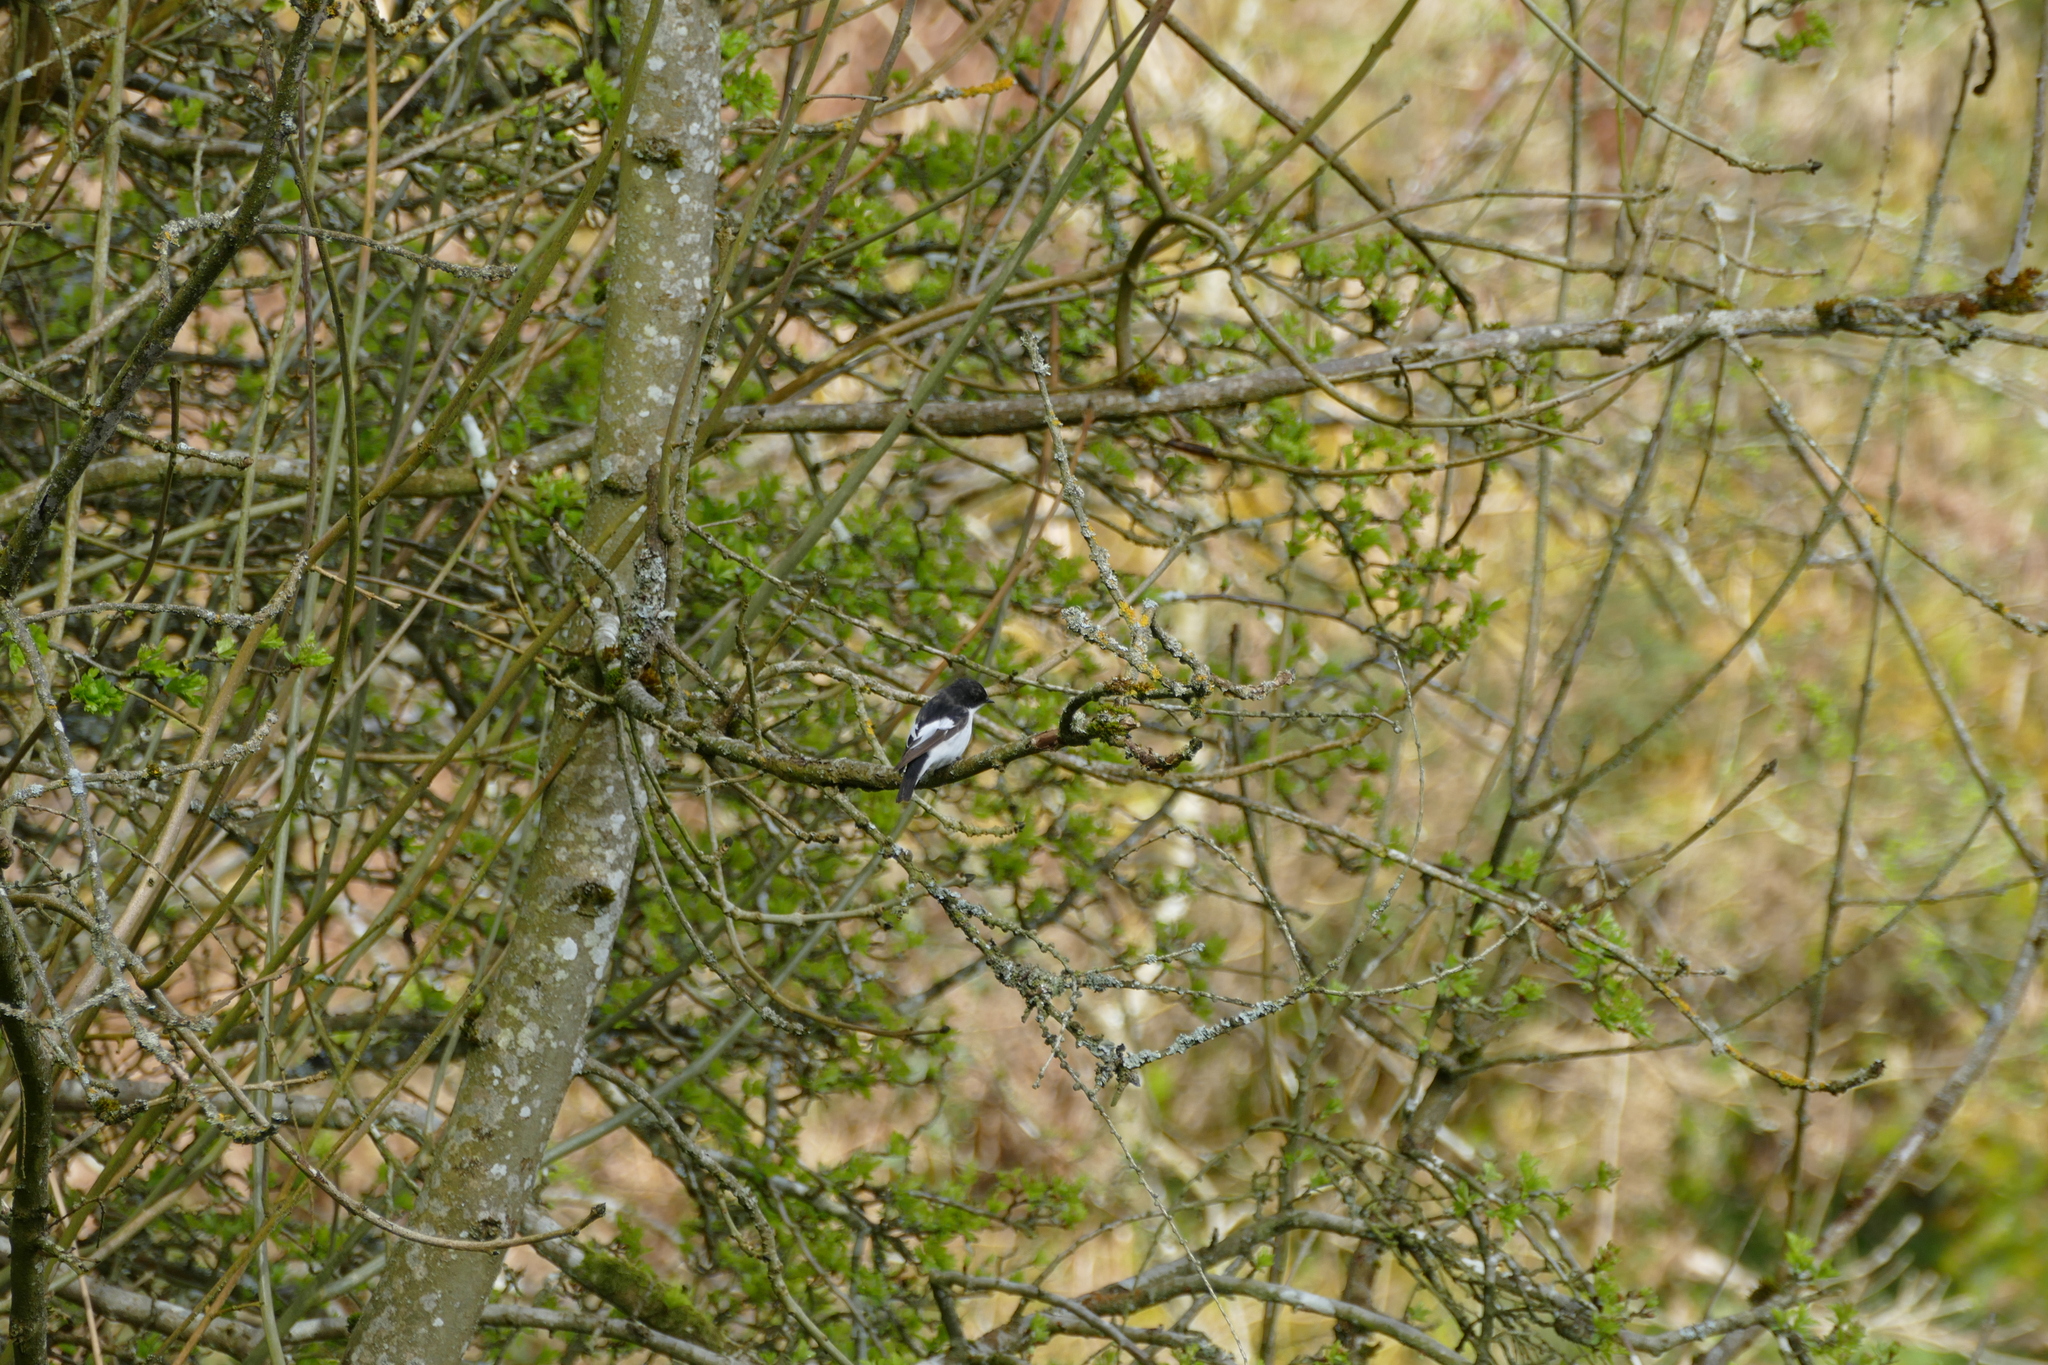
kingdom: Animalia
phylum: Chordata
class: Aves
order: Passeriformes
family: Muscicapidae
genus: Ficedula
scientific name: Ficedula hypoleuca
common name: European pied flycatcher
